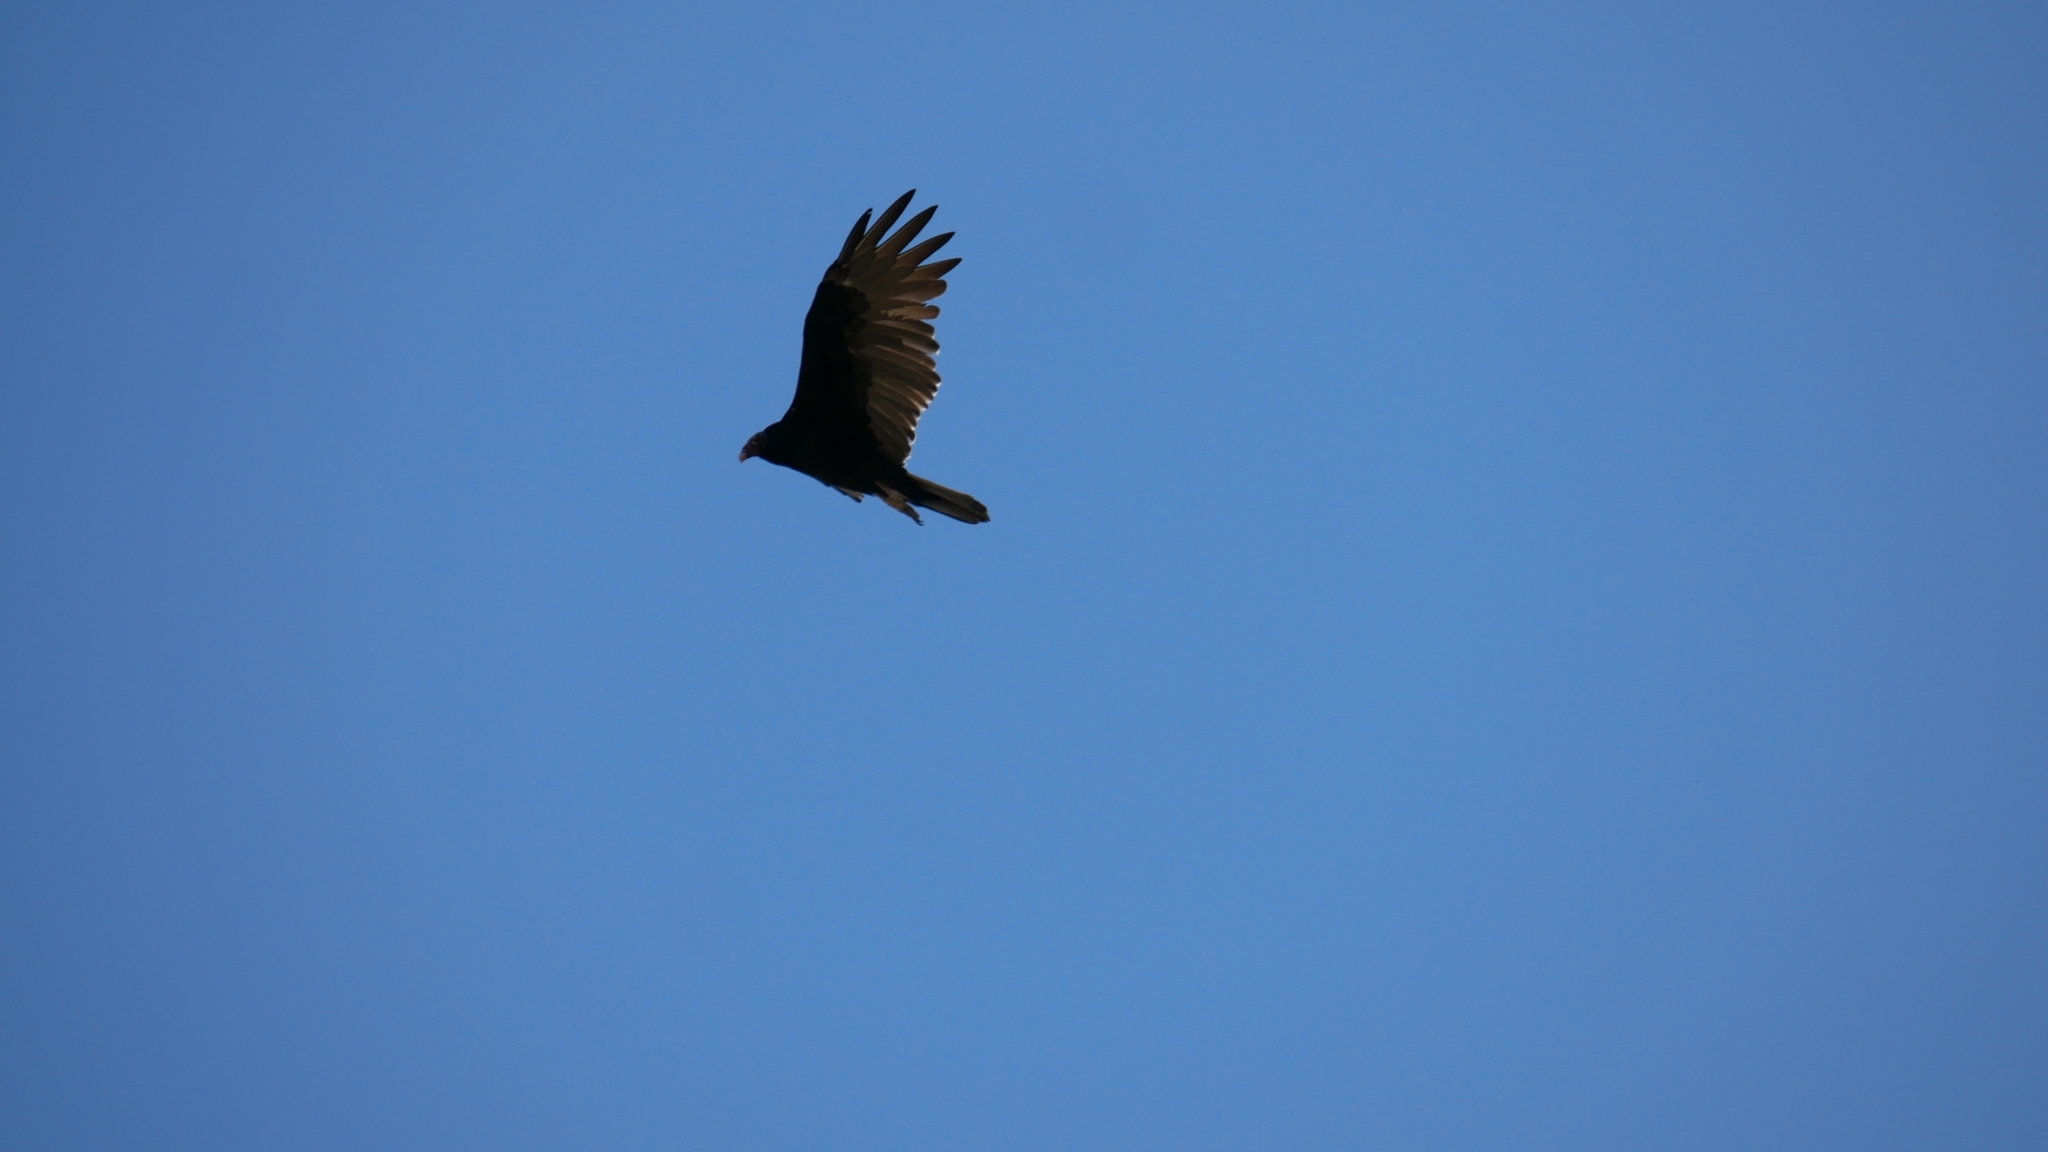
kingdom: Animalia
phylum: Chordata
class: Aves
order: Accipitriformes
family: Cathartidae
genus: Cathartes
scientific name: Cathartes aura
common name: Turkey vulture
